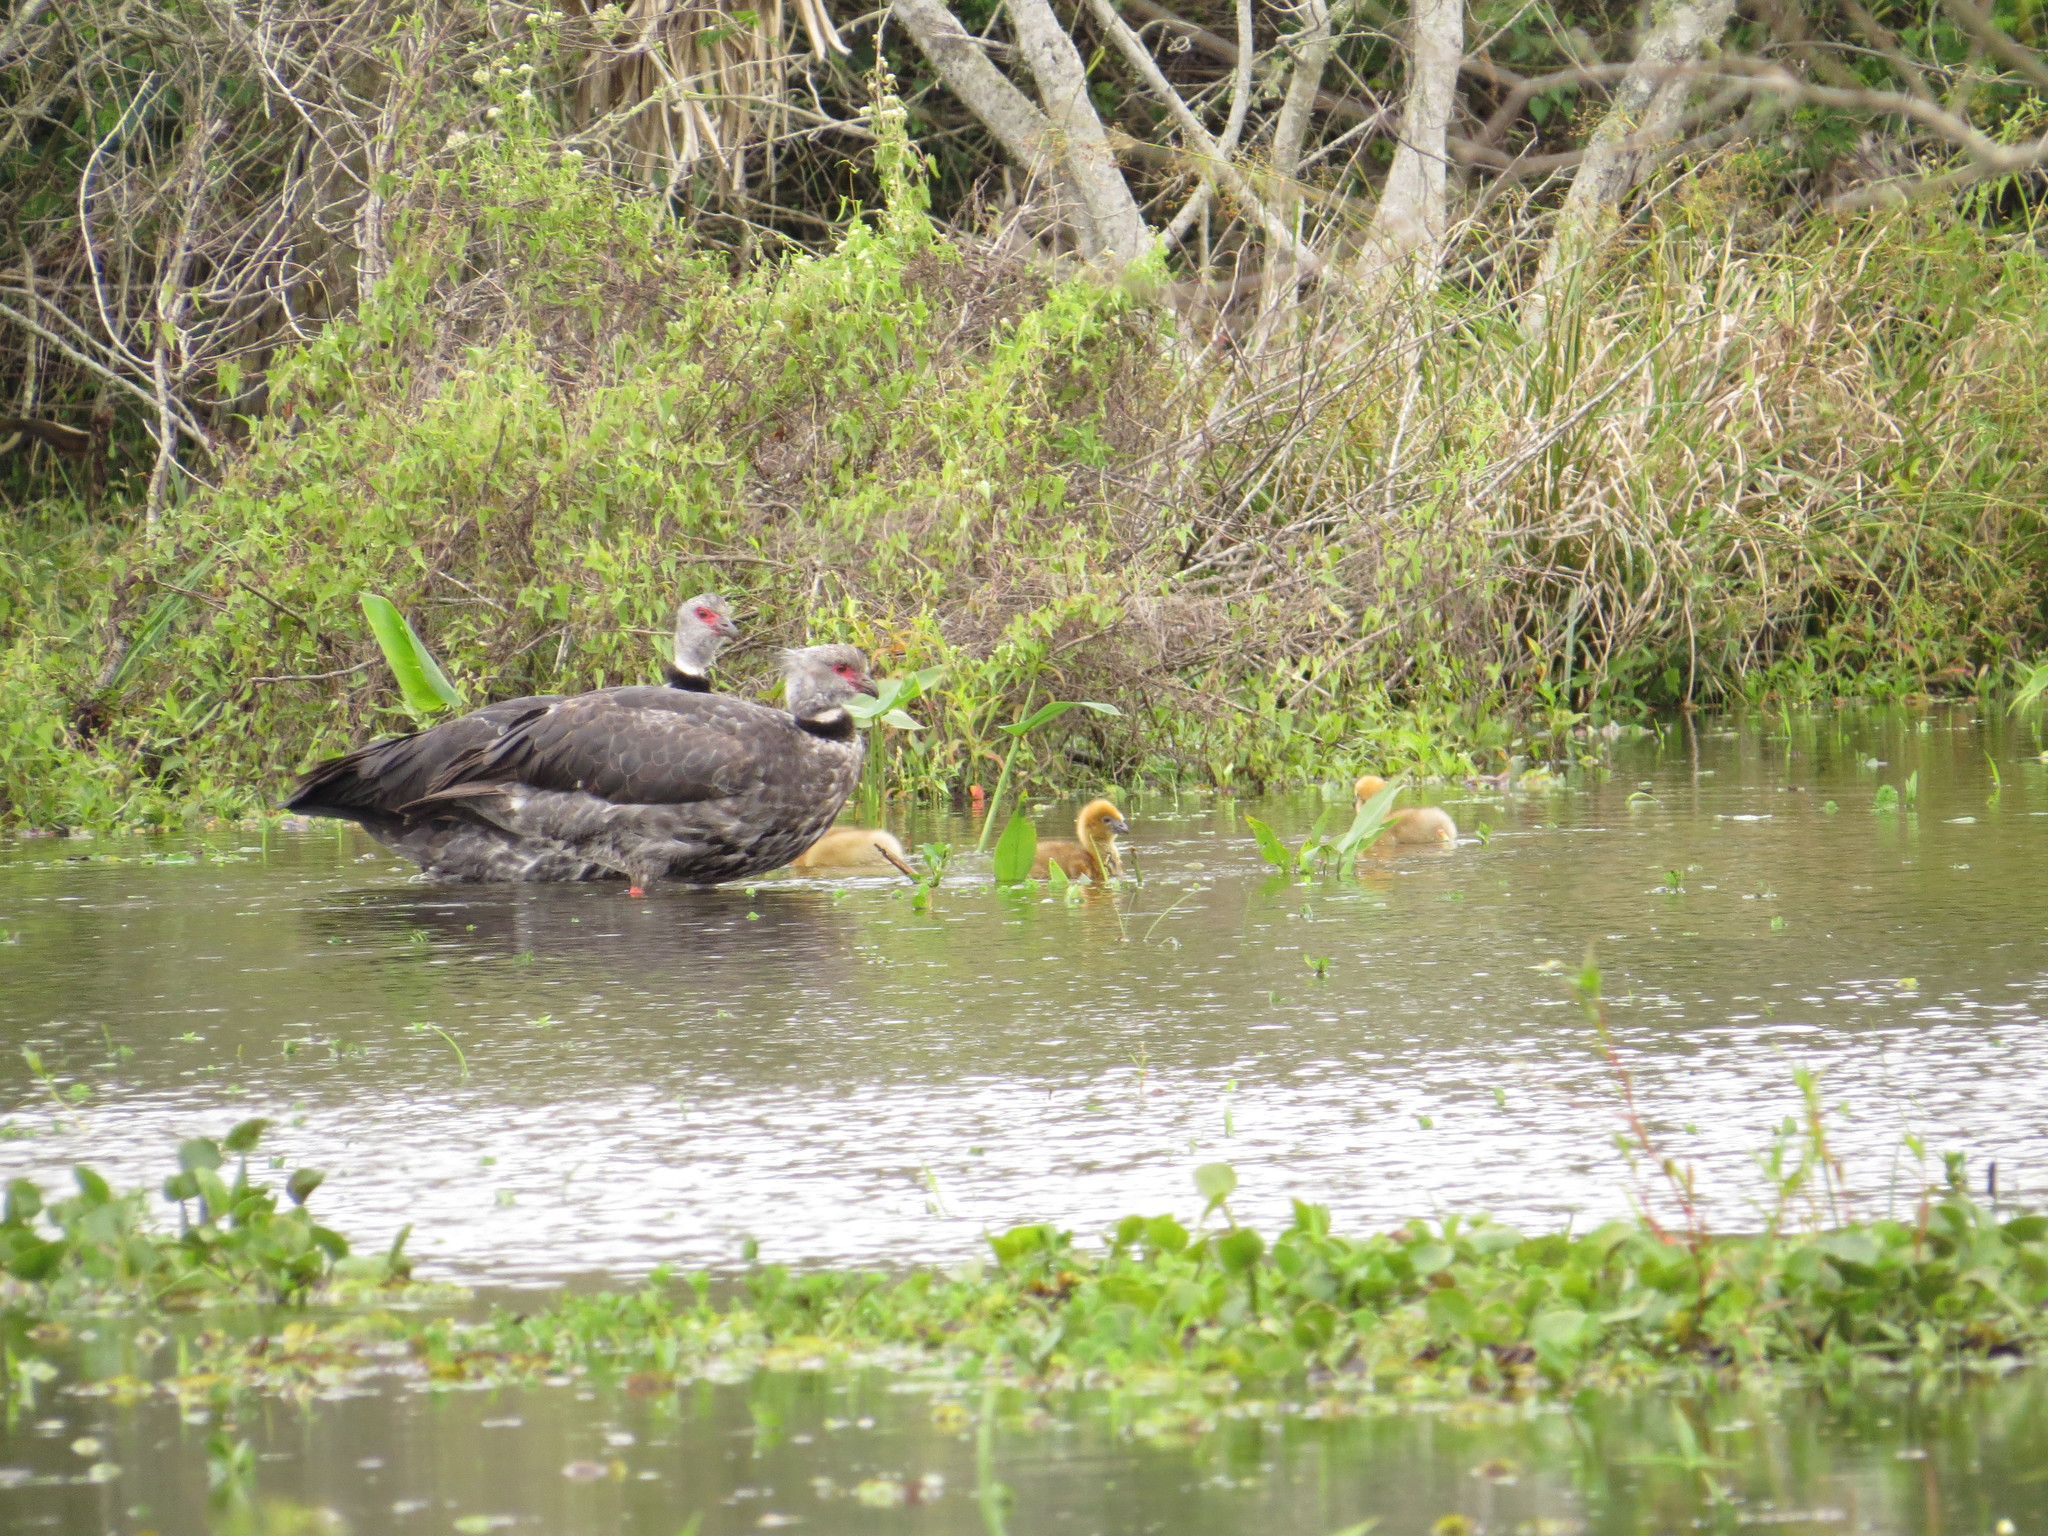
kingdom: Animalia
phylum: Chordata
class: Aves
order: Anseriformes
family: Anhimidae
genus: Chauna
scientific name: Chauna torquata
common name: Southern screamer
